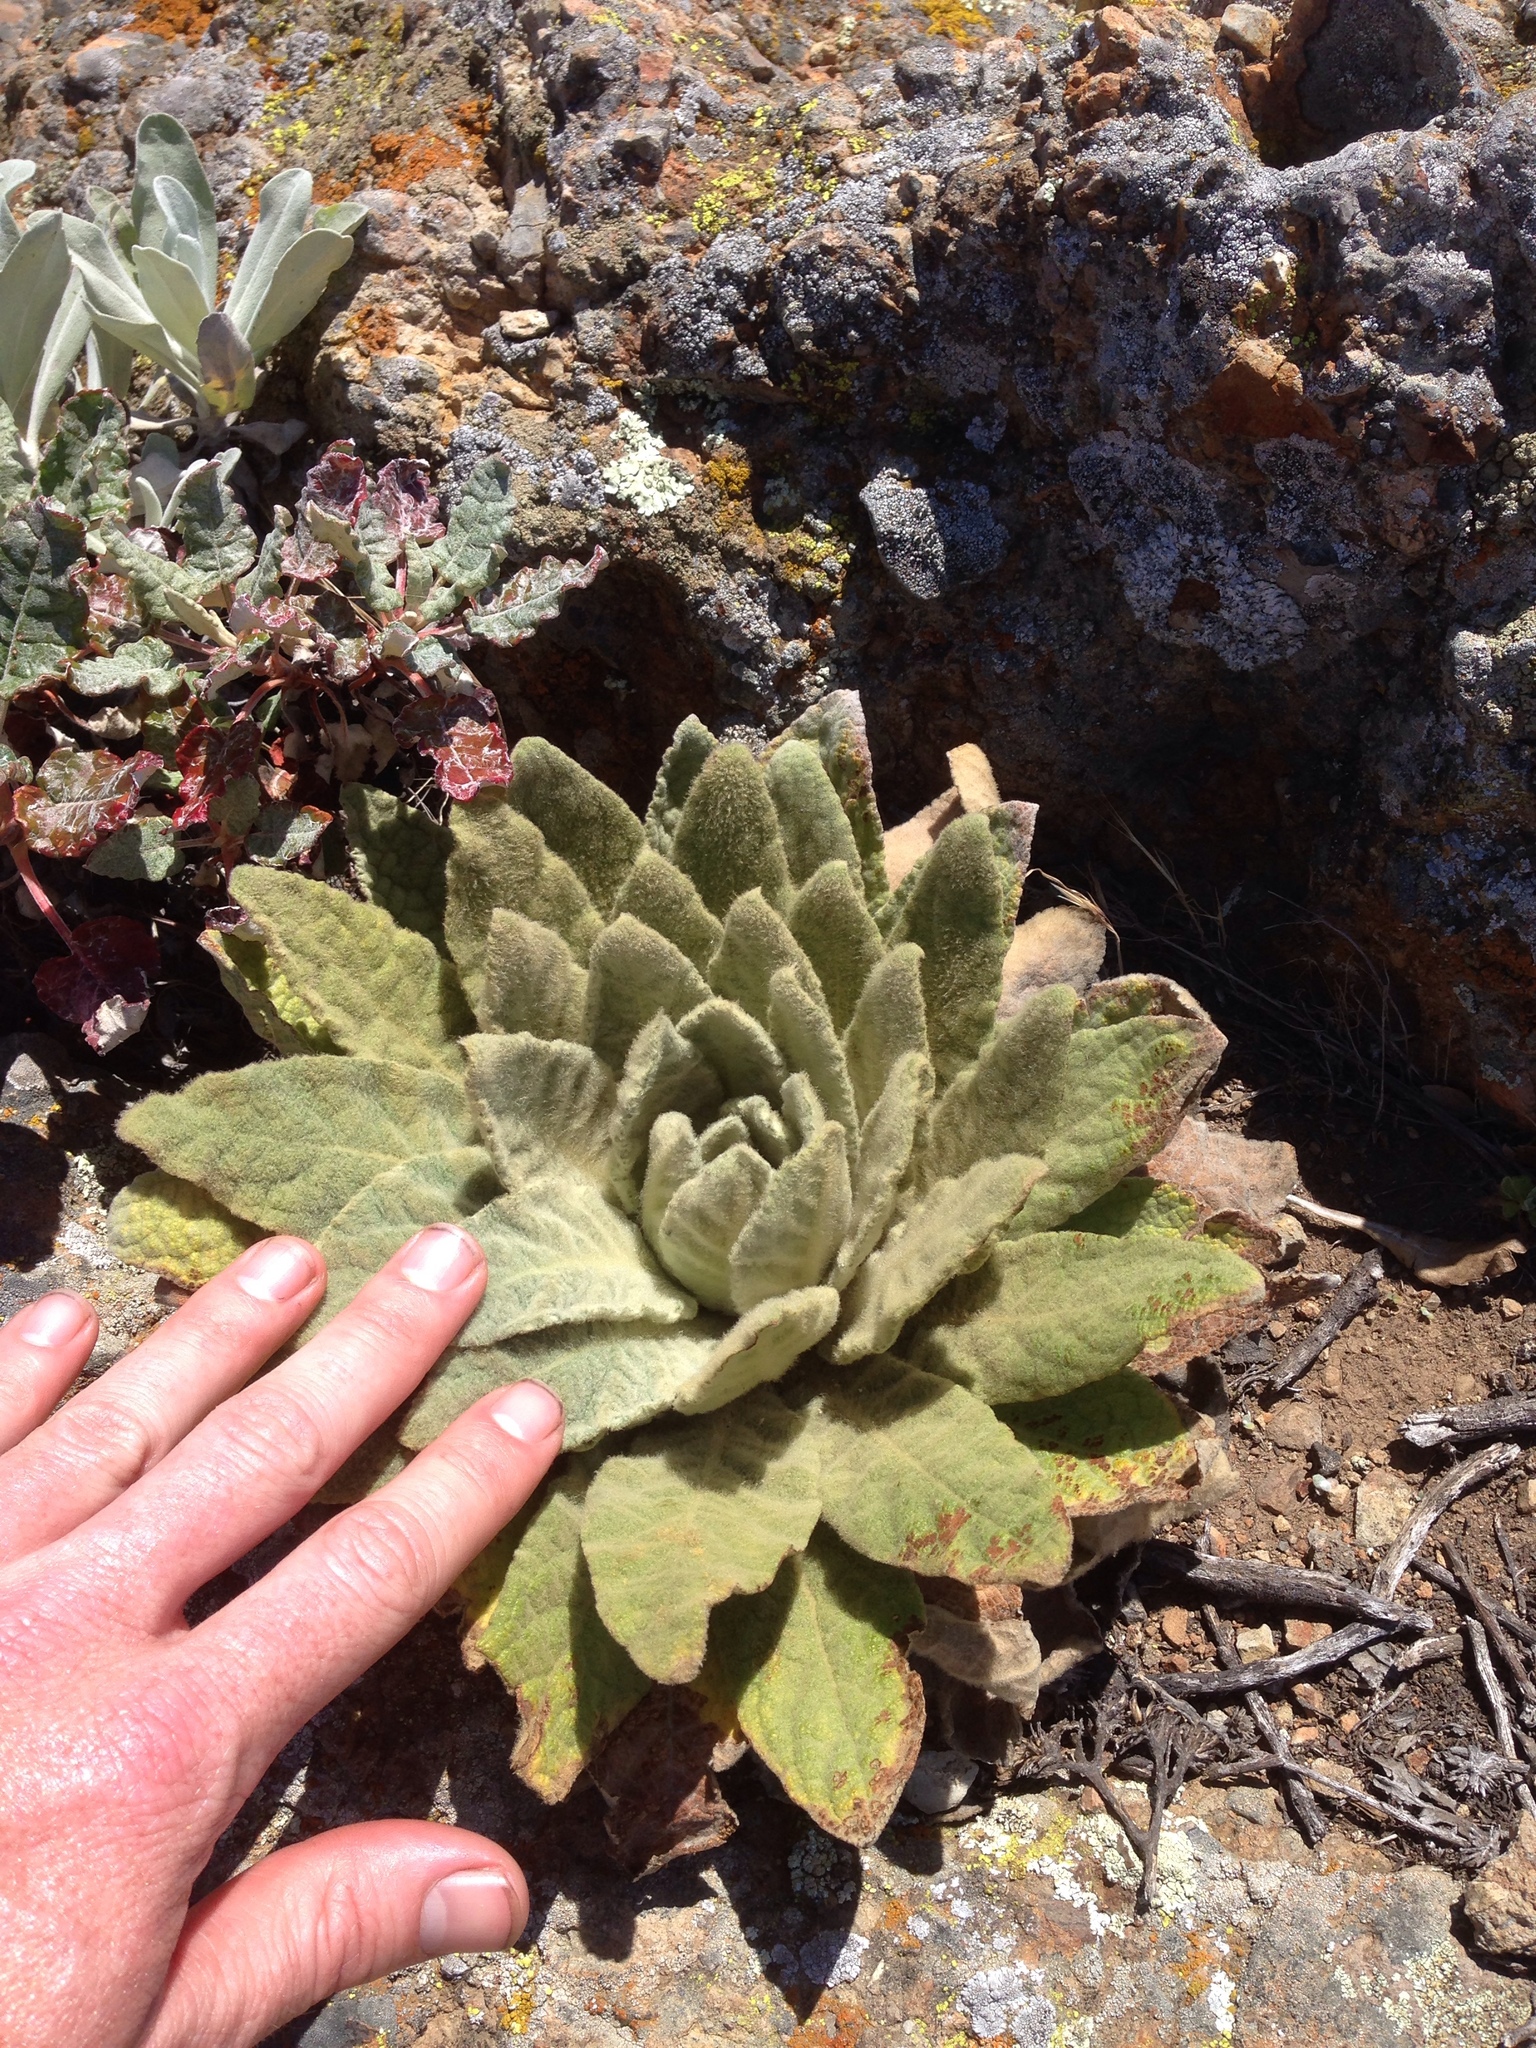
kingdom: Plantae
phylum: Tracheophyta
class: Magnoliopsida
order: Lamiales
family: Scrophulariaceae
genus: Verbascum
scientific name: Verbascum thapsus
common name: Common mullein
